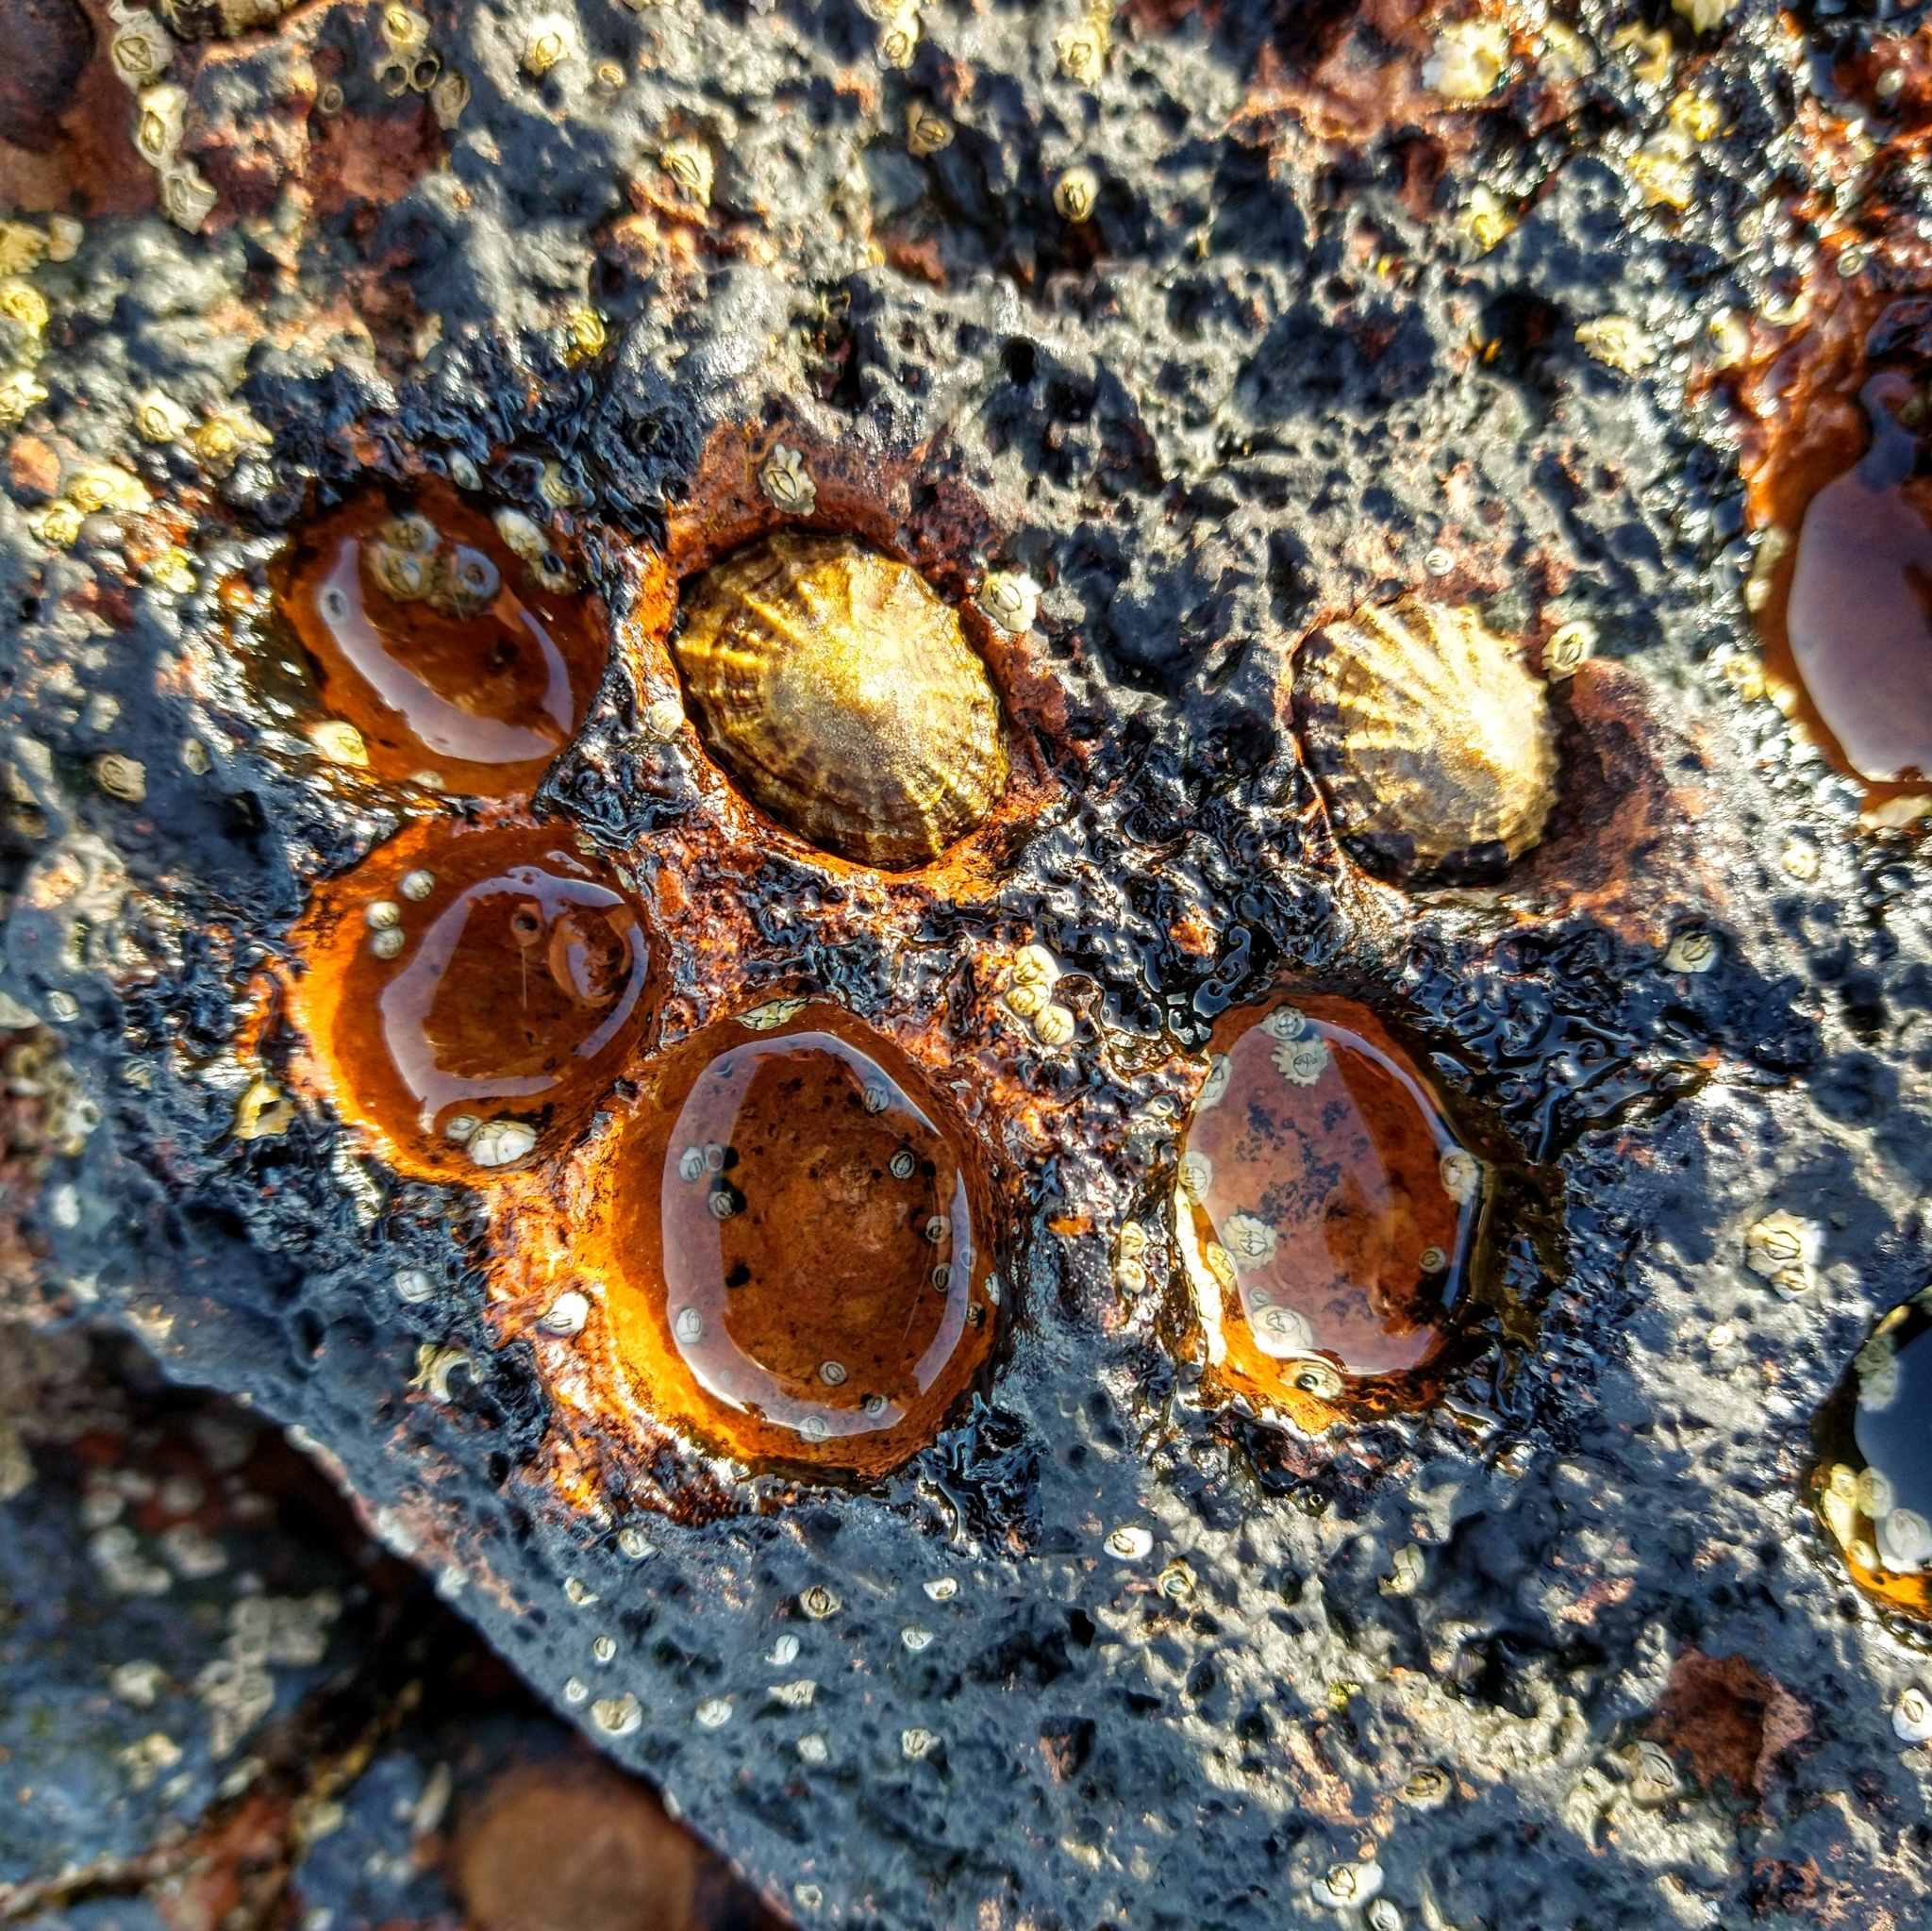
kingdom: Animalia
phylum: Mollusca
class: Gastropoda
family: Patellidae
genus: Patella
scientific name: Patella vulgata
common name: Common limpet
